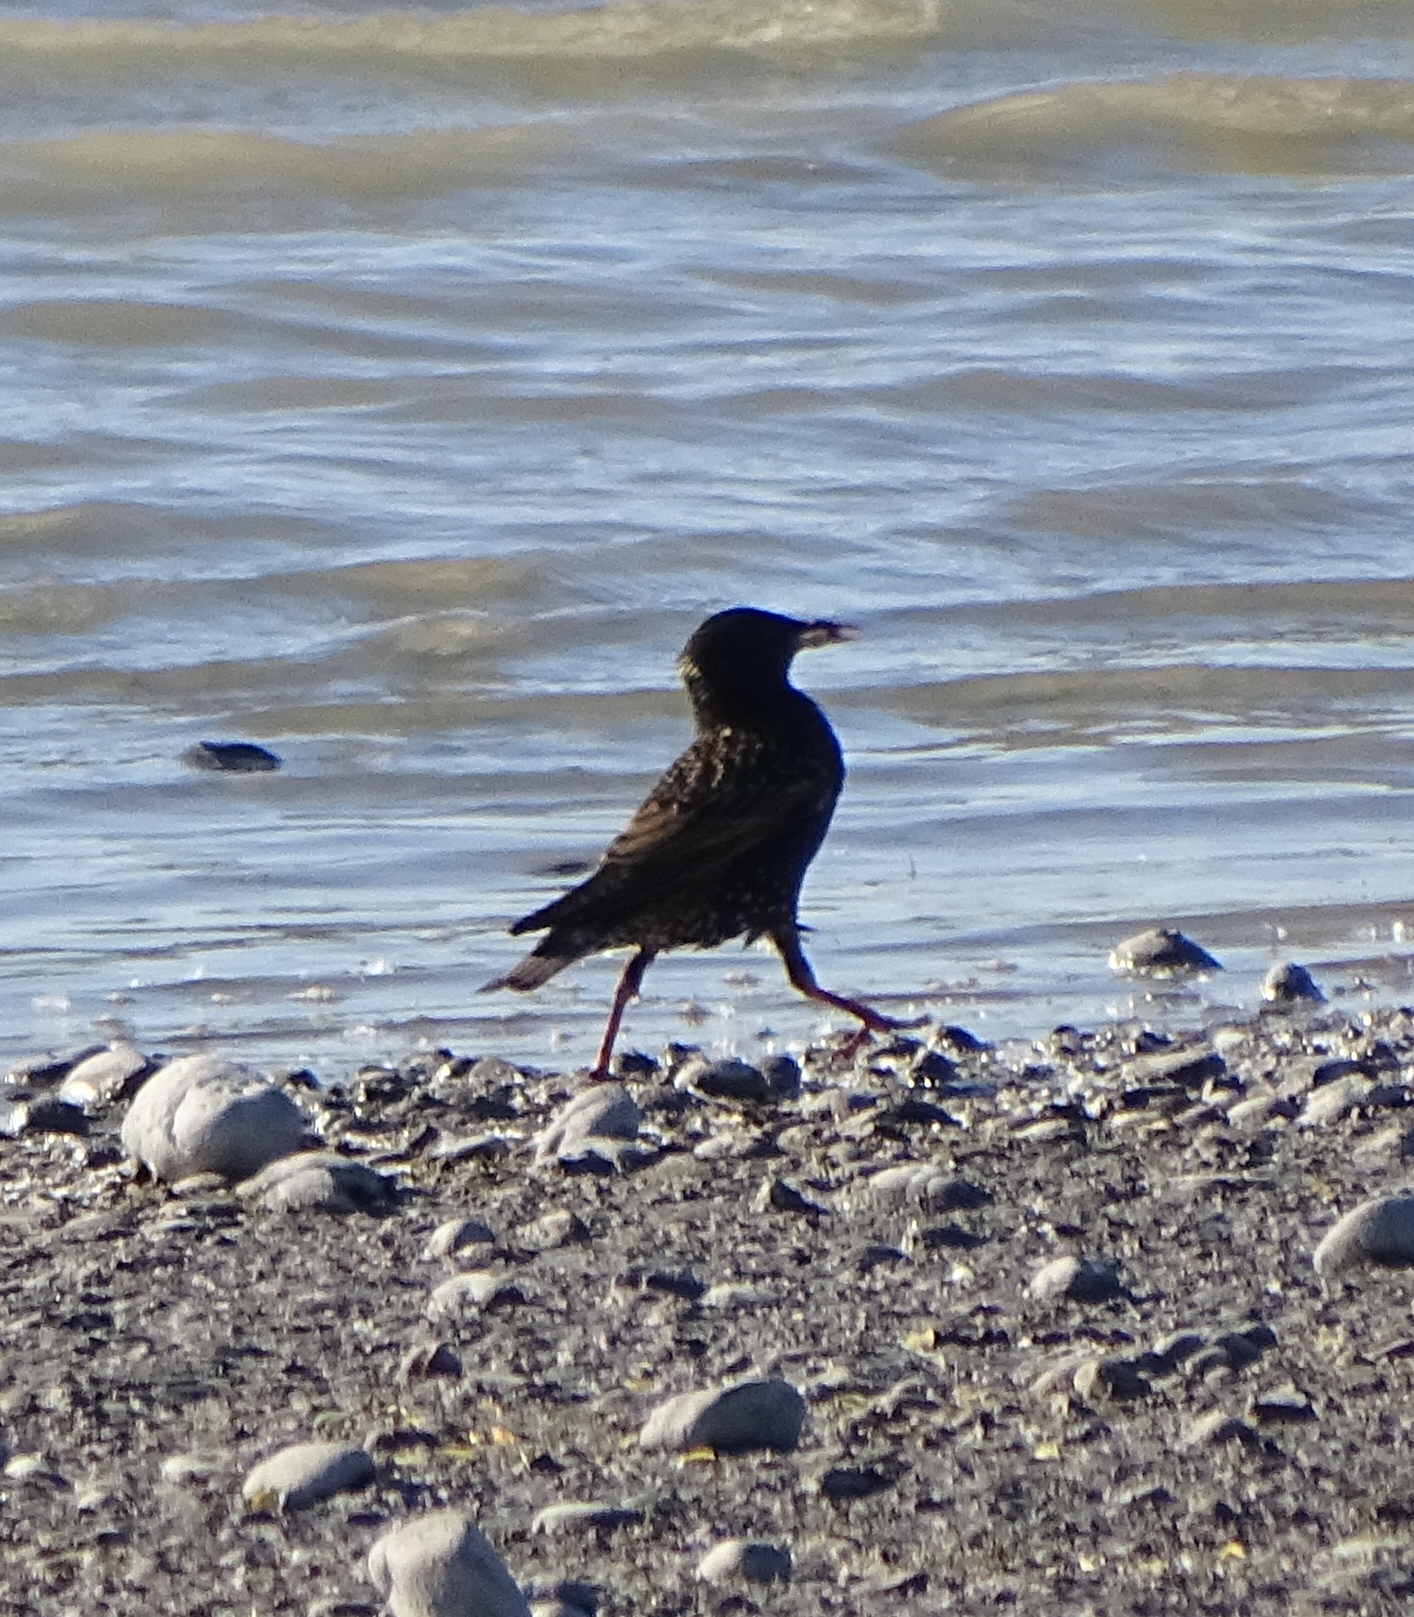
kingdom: Animalia
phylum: Chordata
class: Aves
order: Passeriformes
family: Sturnidae
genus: Sturnus
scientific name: Sturnus vulgaris
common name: Common starling
